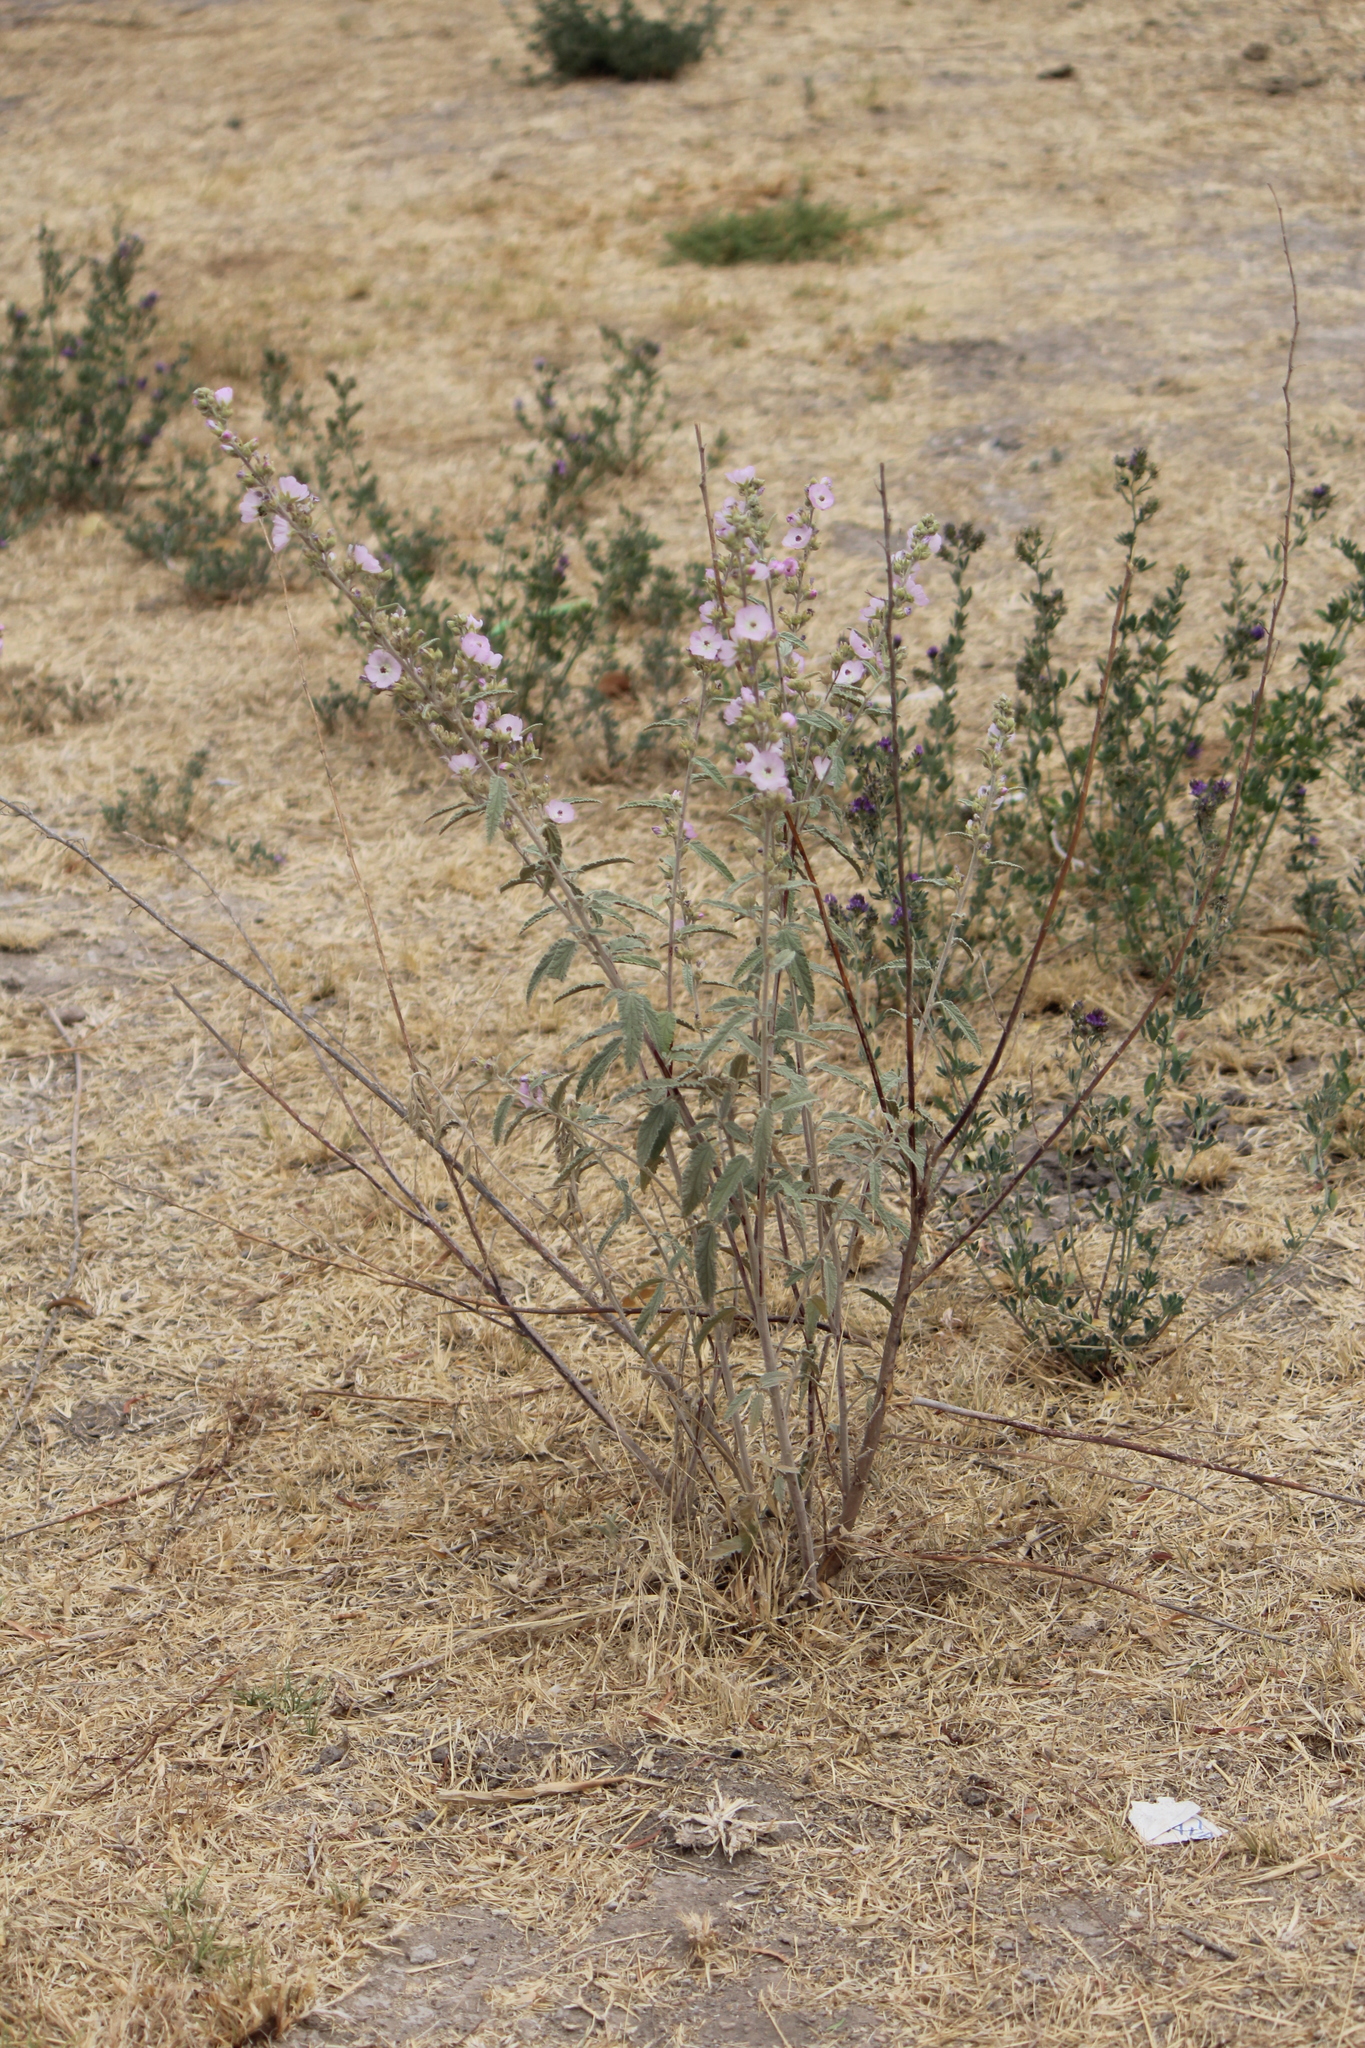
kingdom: Plantae
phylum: Tracheophyta
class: Magnoliopsida
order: Malvales
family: Malvaceae
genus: Sphaeralcea
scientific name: Sphaeralcea angustifolia
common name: Copper globe-mallow
